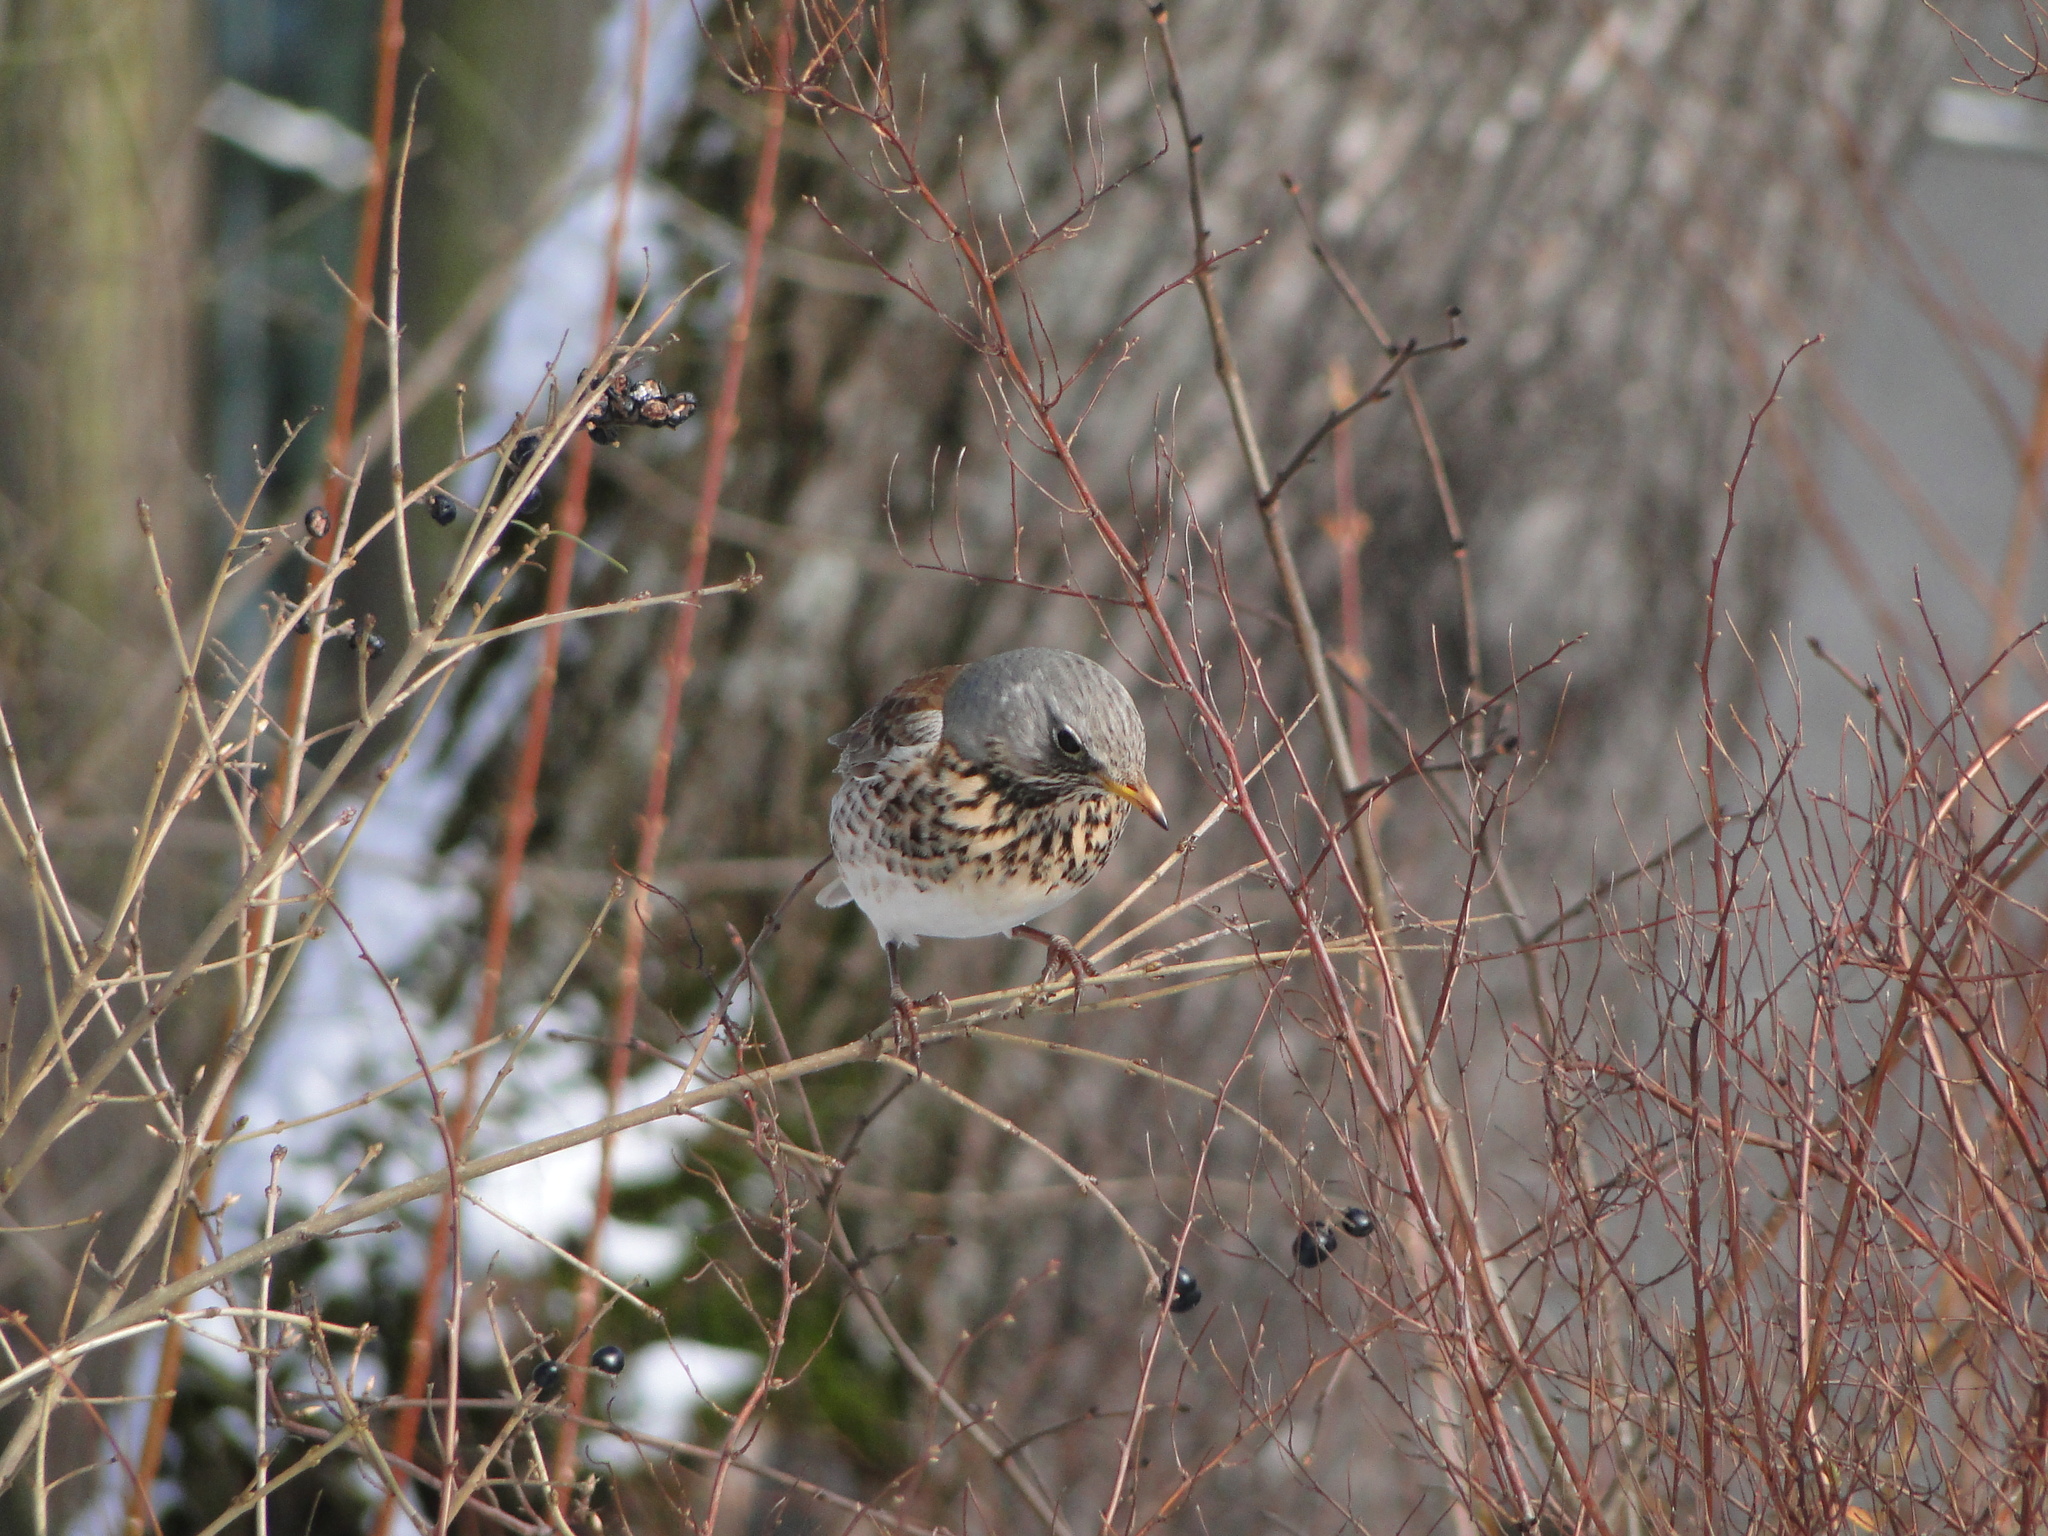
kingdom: Animalia
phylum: Chordata
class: Aves
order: Passeriformes
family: Turdidae
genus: Turdus
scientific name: Turdus pilaris
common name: Fieldfare
